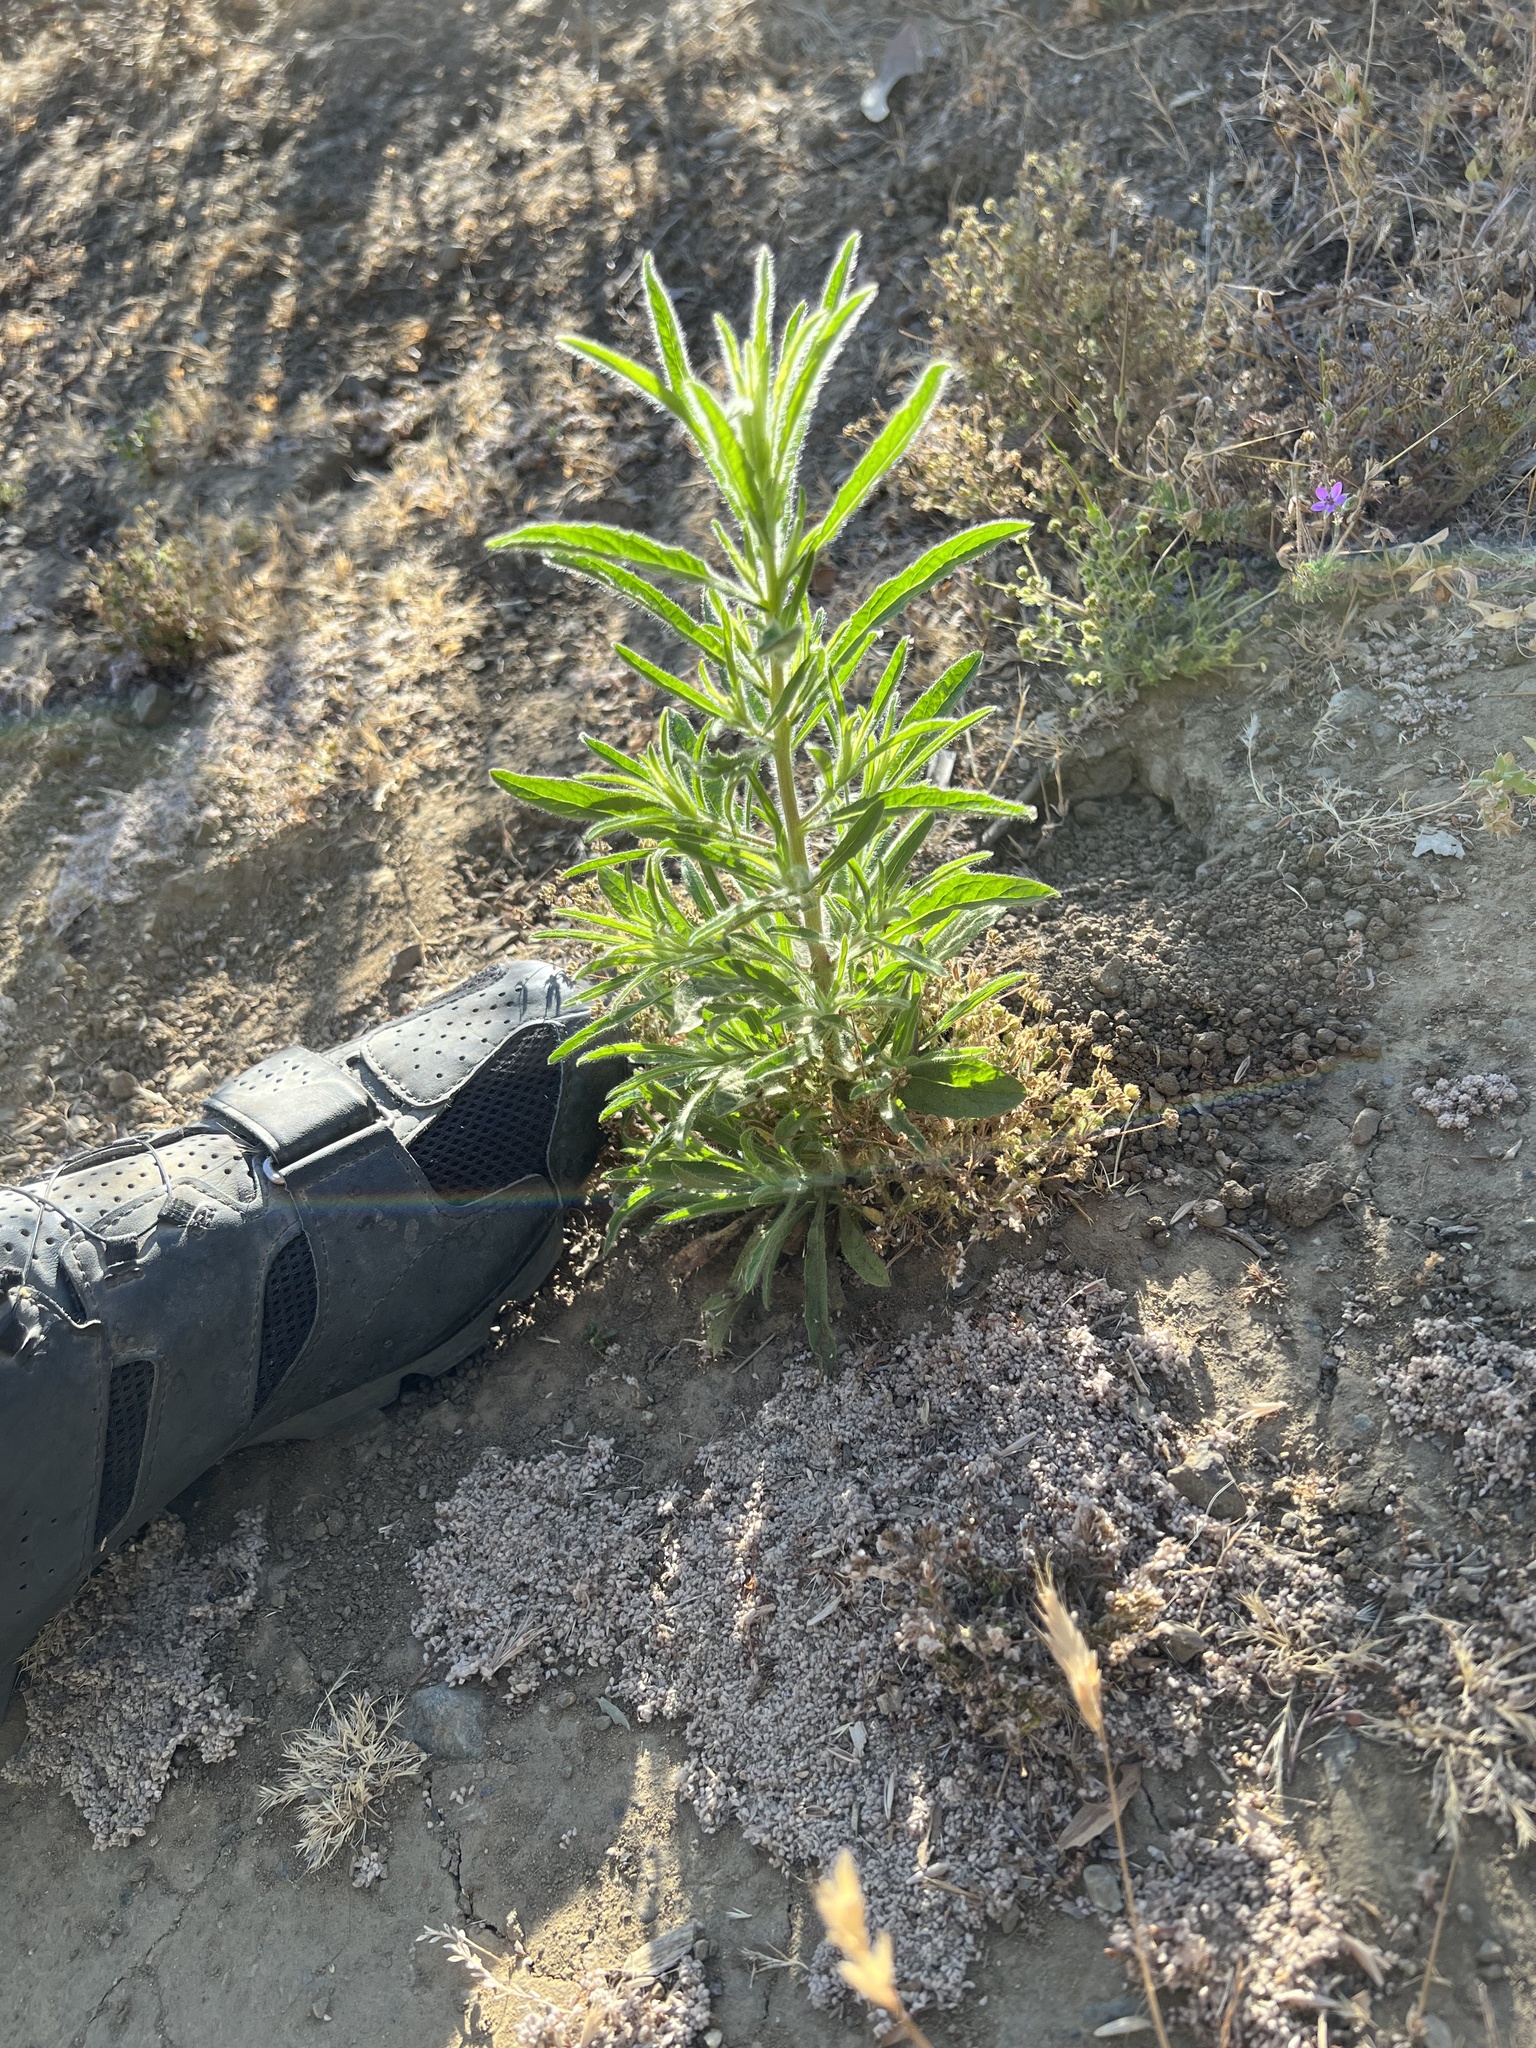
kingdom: Plantae
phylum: Tracheophyta
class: Magnoliopsida
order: Asterales
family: Asteraceae
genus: Dittrichia
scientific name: Dittrichia graveolens
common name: Stinking fleabane
